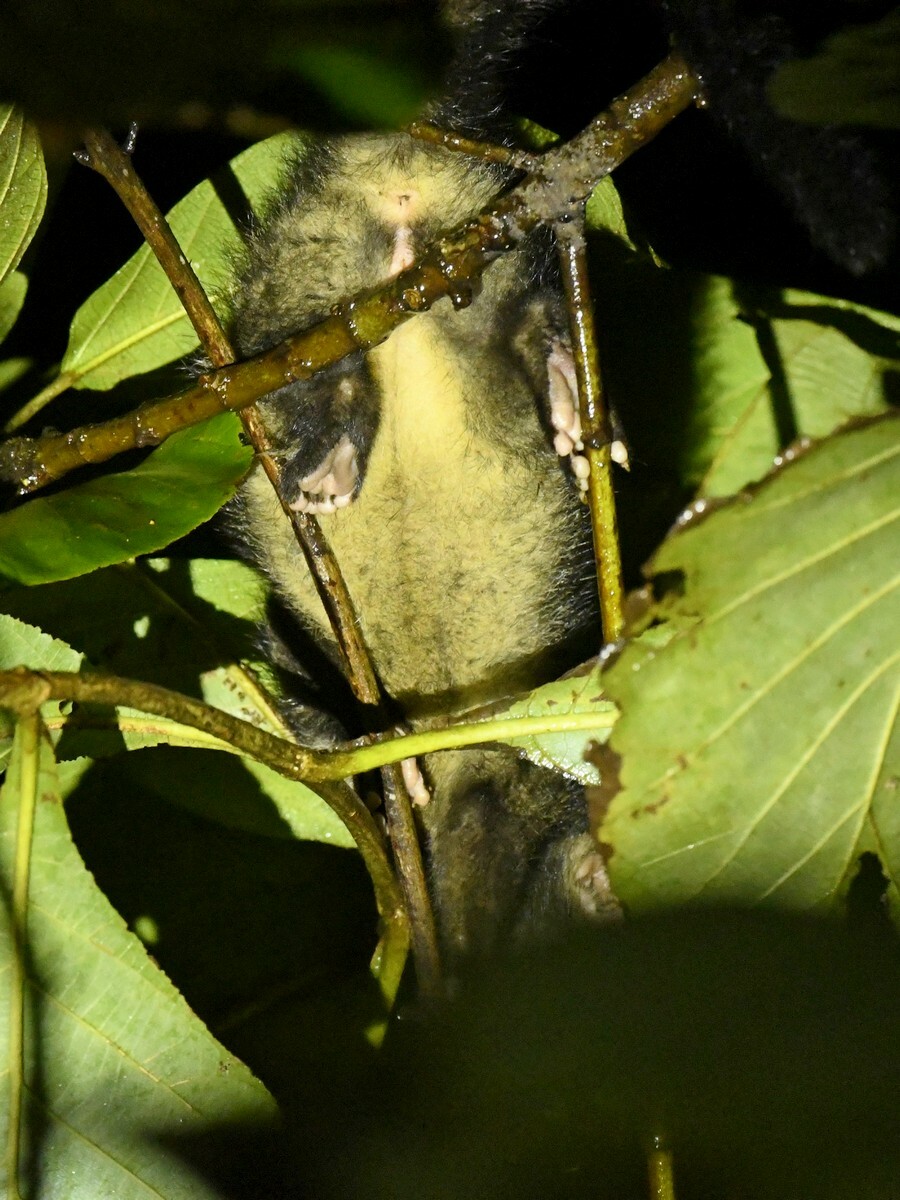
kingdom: Animalia
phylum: Chordata
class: Mammalia
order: Carnivora
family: Viverridae
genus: Paradoxurus
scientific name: Paradoxurus hermaphroditus
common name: Common palm civet
